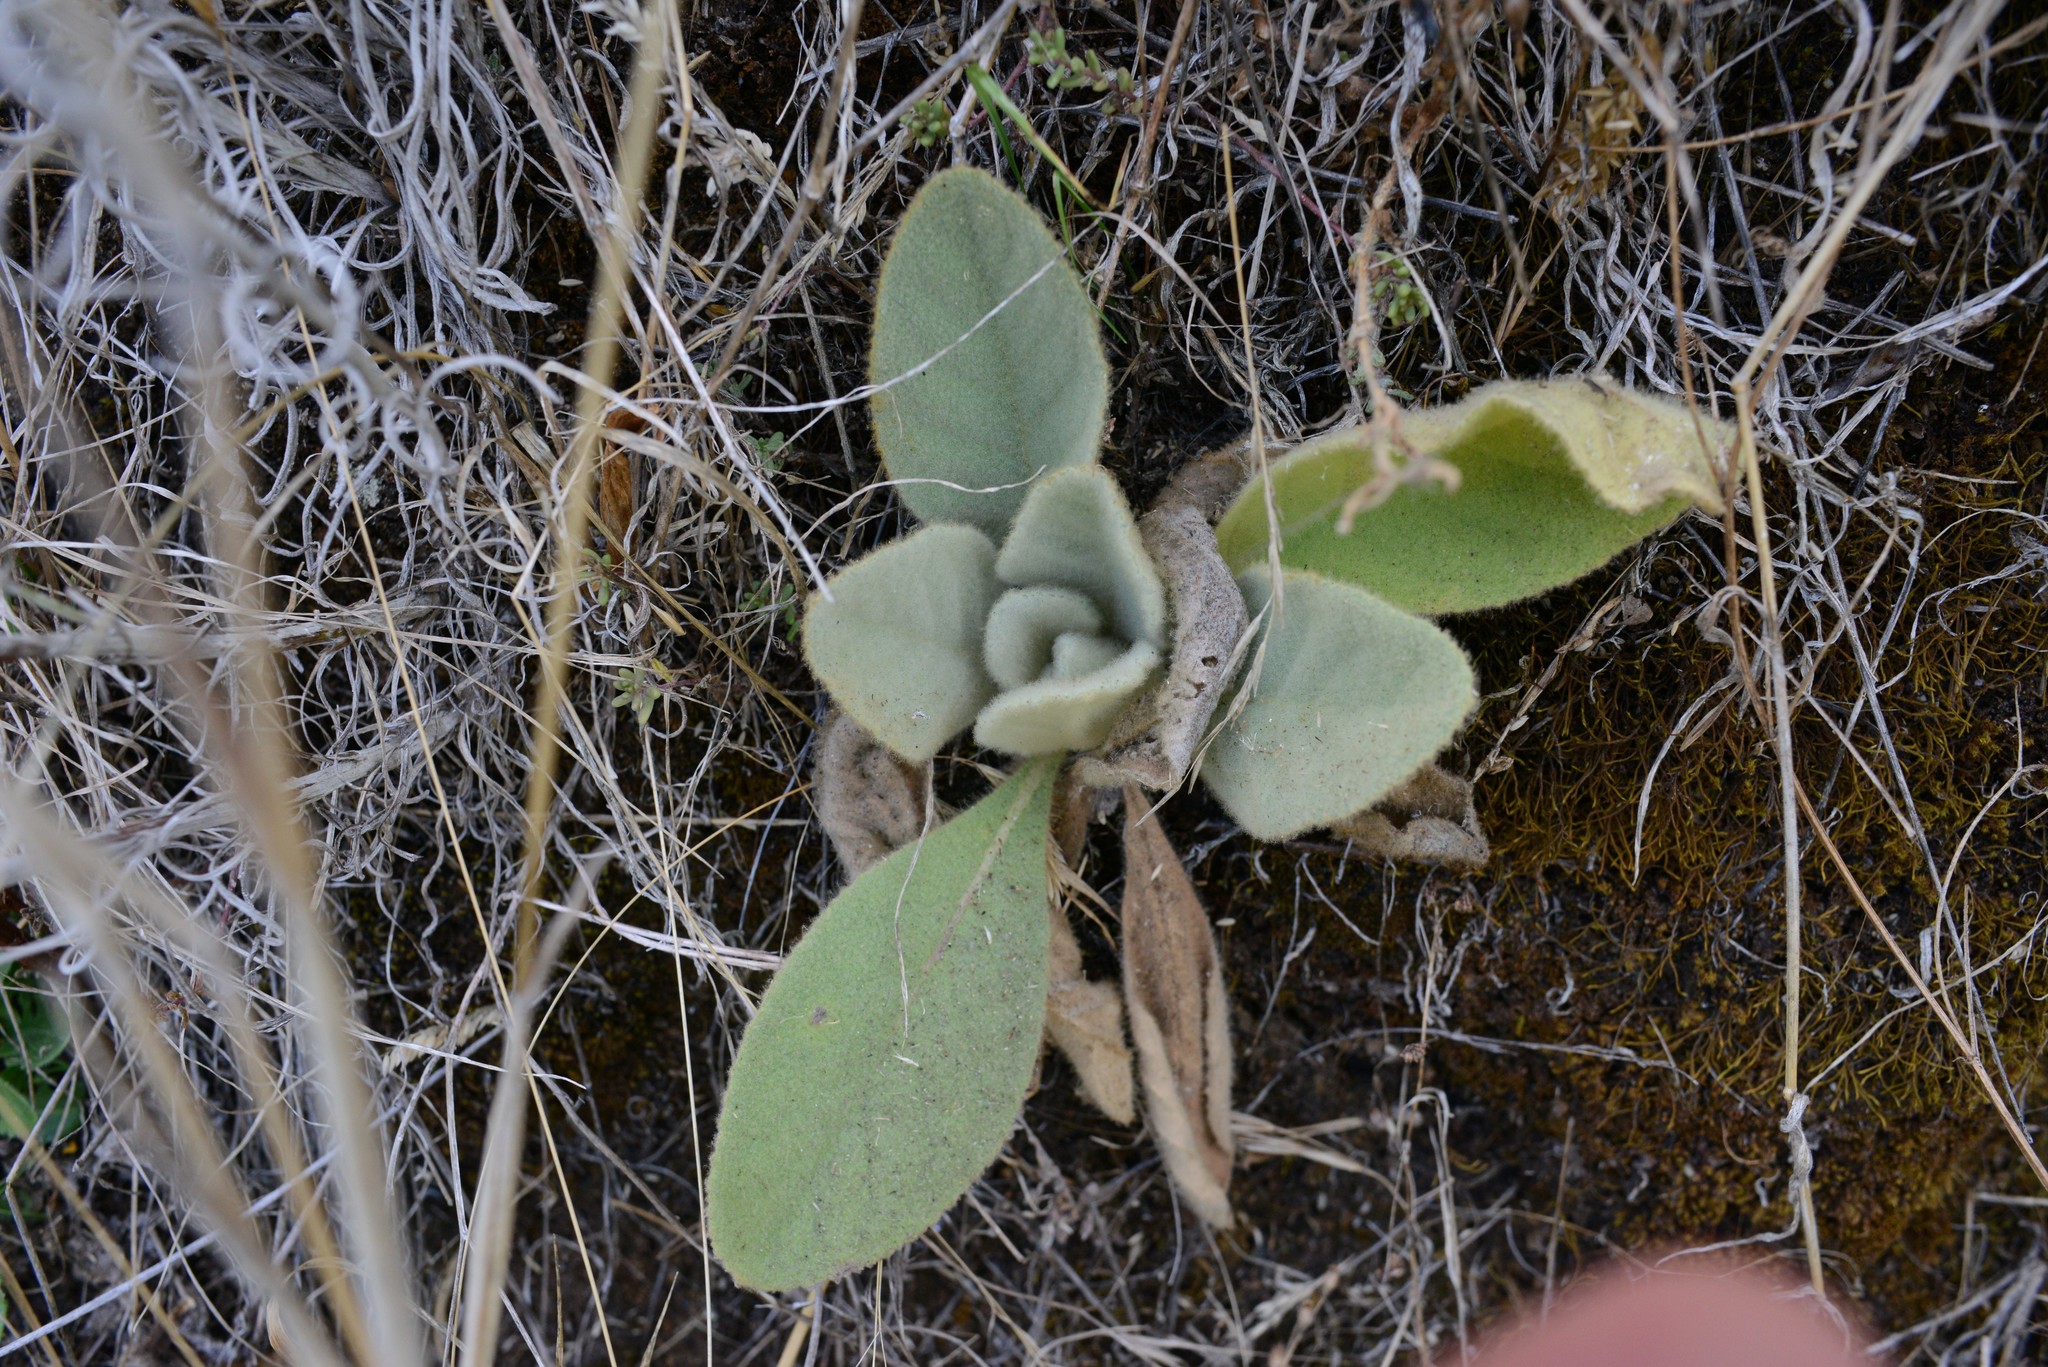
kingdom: Plantae
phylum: Tracheophyta
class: Magnoliopsida
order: Lamiales
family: Scrophulariaceae
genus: Verbascum
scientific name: Verbascum thapsus
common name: Common mullein
